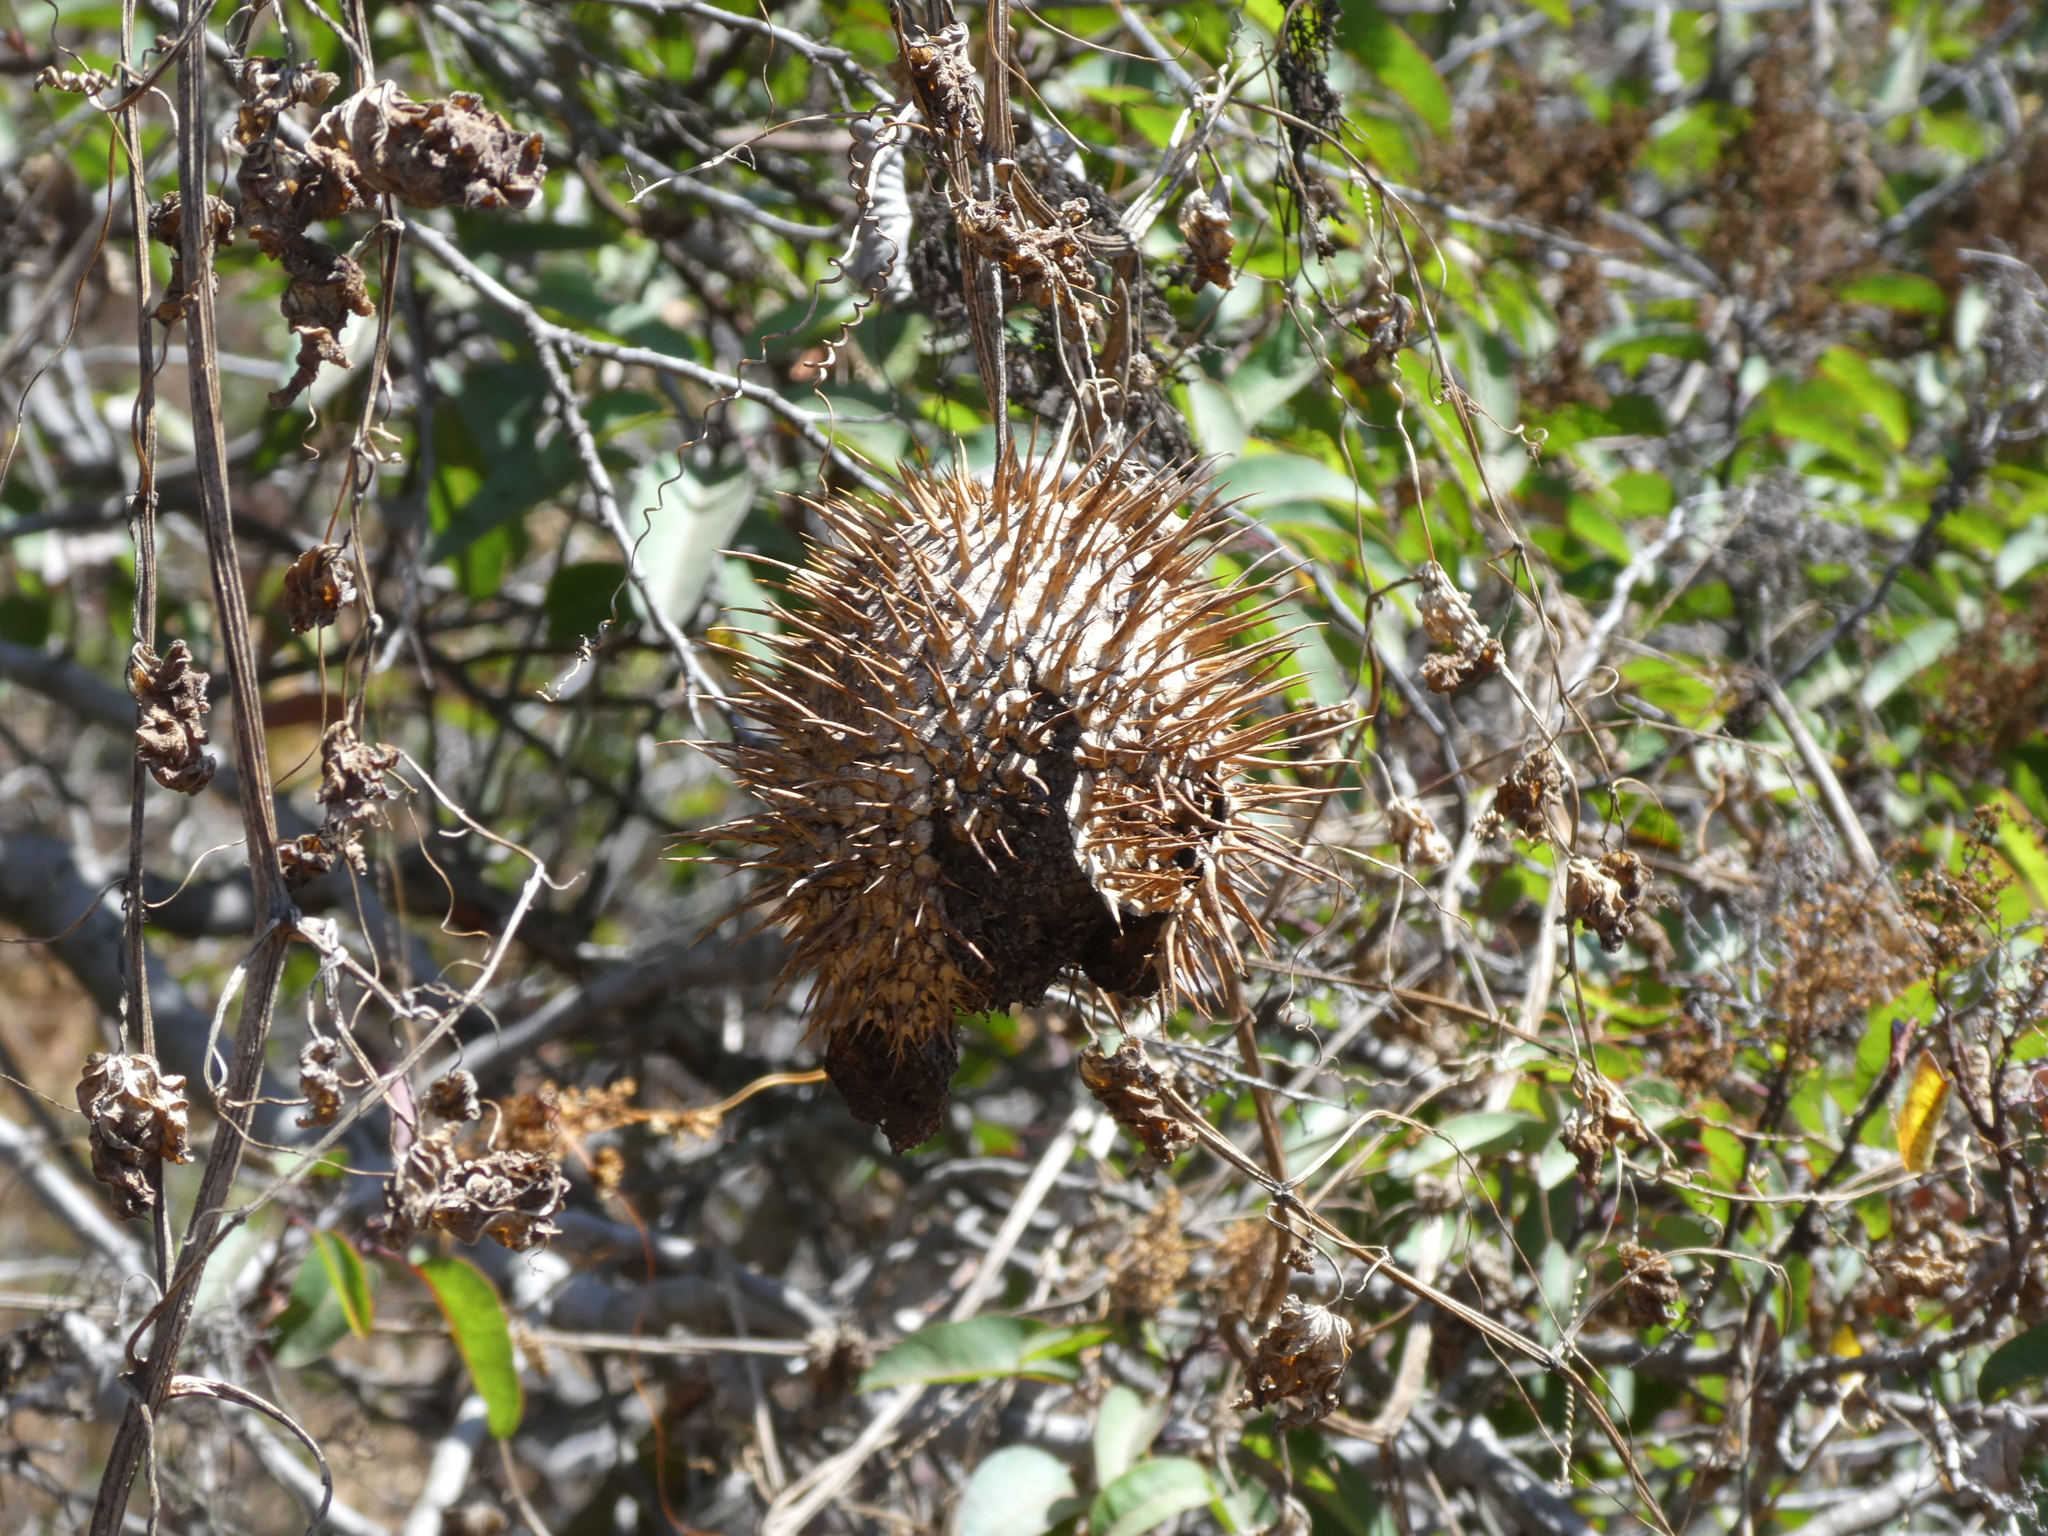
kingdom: Plantae
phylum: Tracheophyta
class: Magnoliopsida
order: Cucurbitales
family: Cucurbitaceae
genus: Marah
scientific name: Marah macrocarpa
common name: Cucamonga manroot
